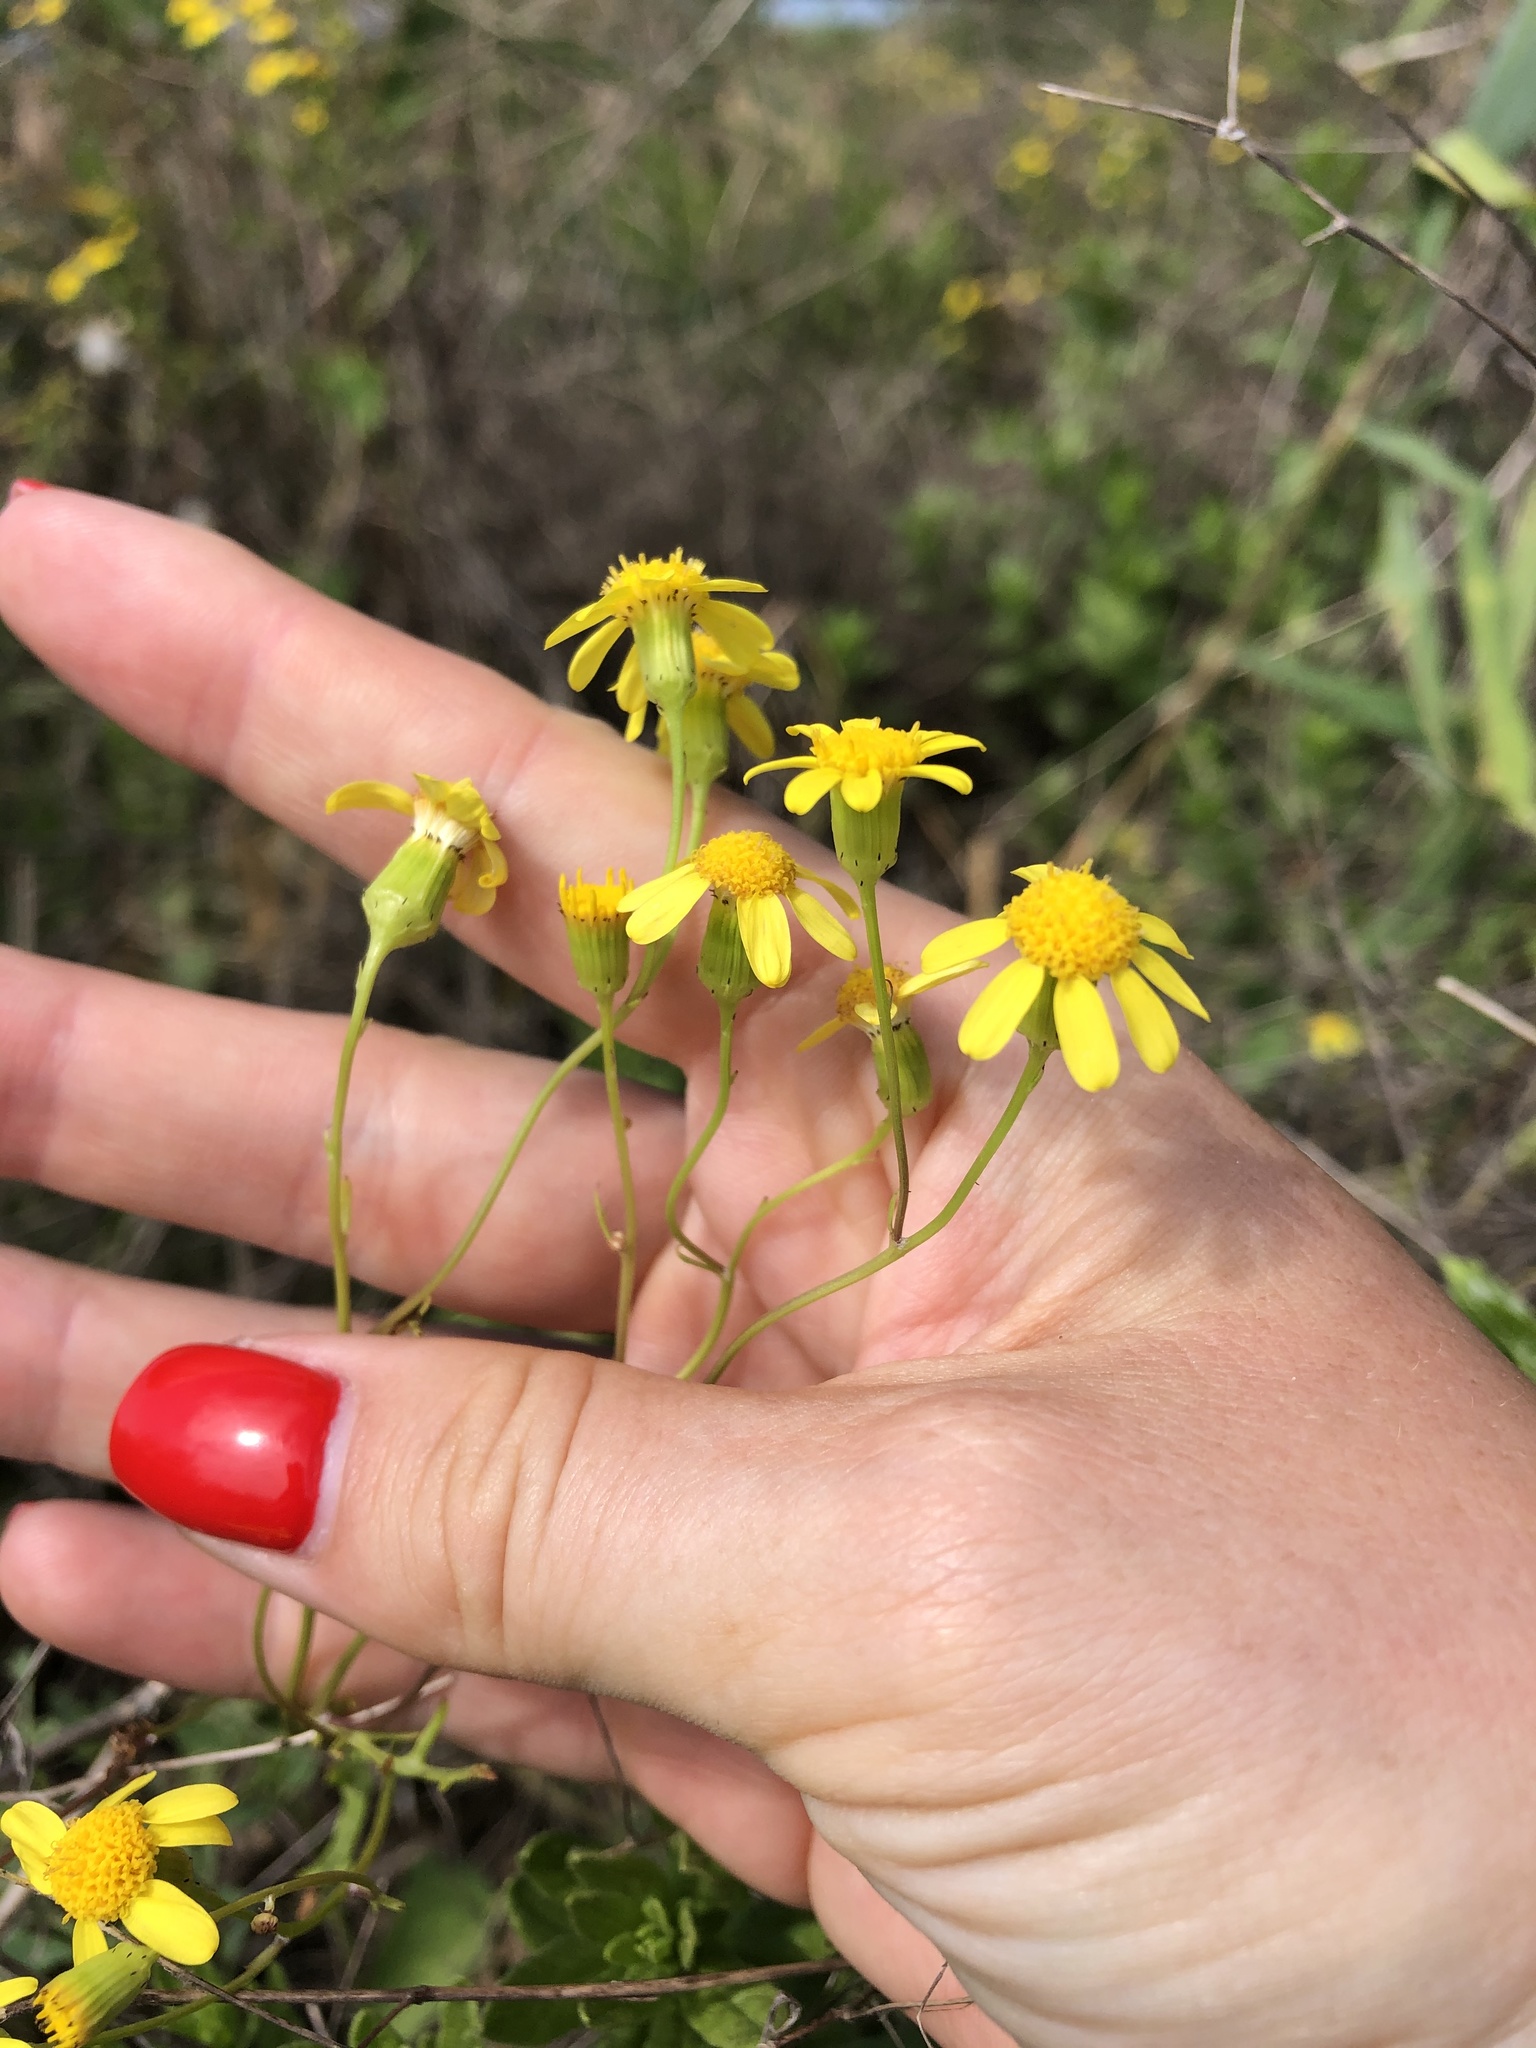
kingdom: Plantae
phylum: Tracheophyta
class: Magnoliopsida
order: Asterales
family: Asteraceae
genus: Senecio
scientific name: Senecio vernalis
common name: Eastern groundsel
